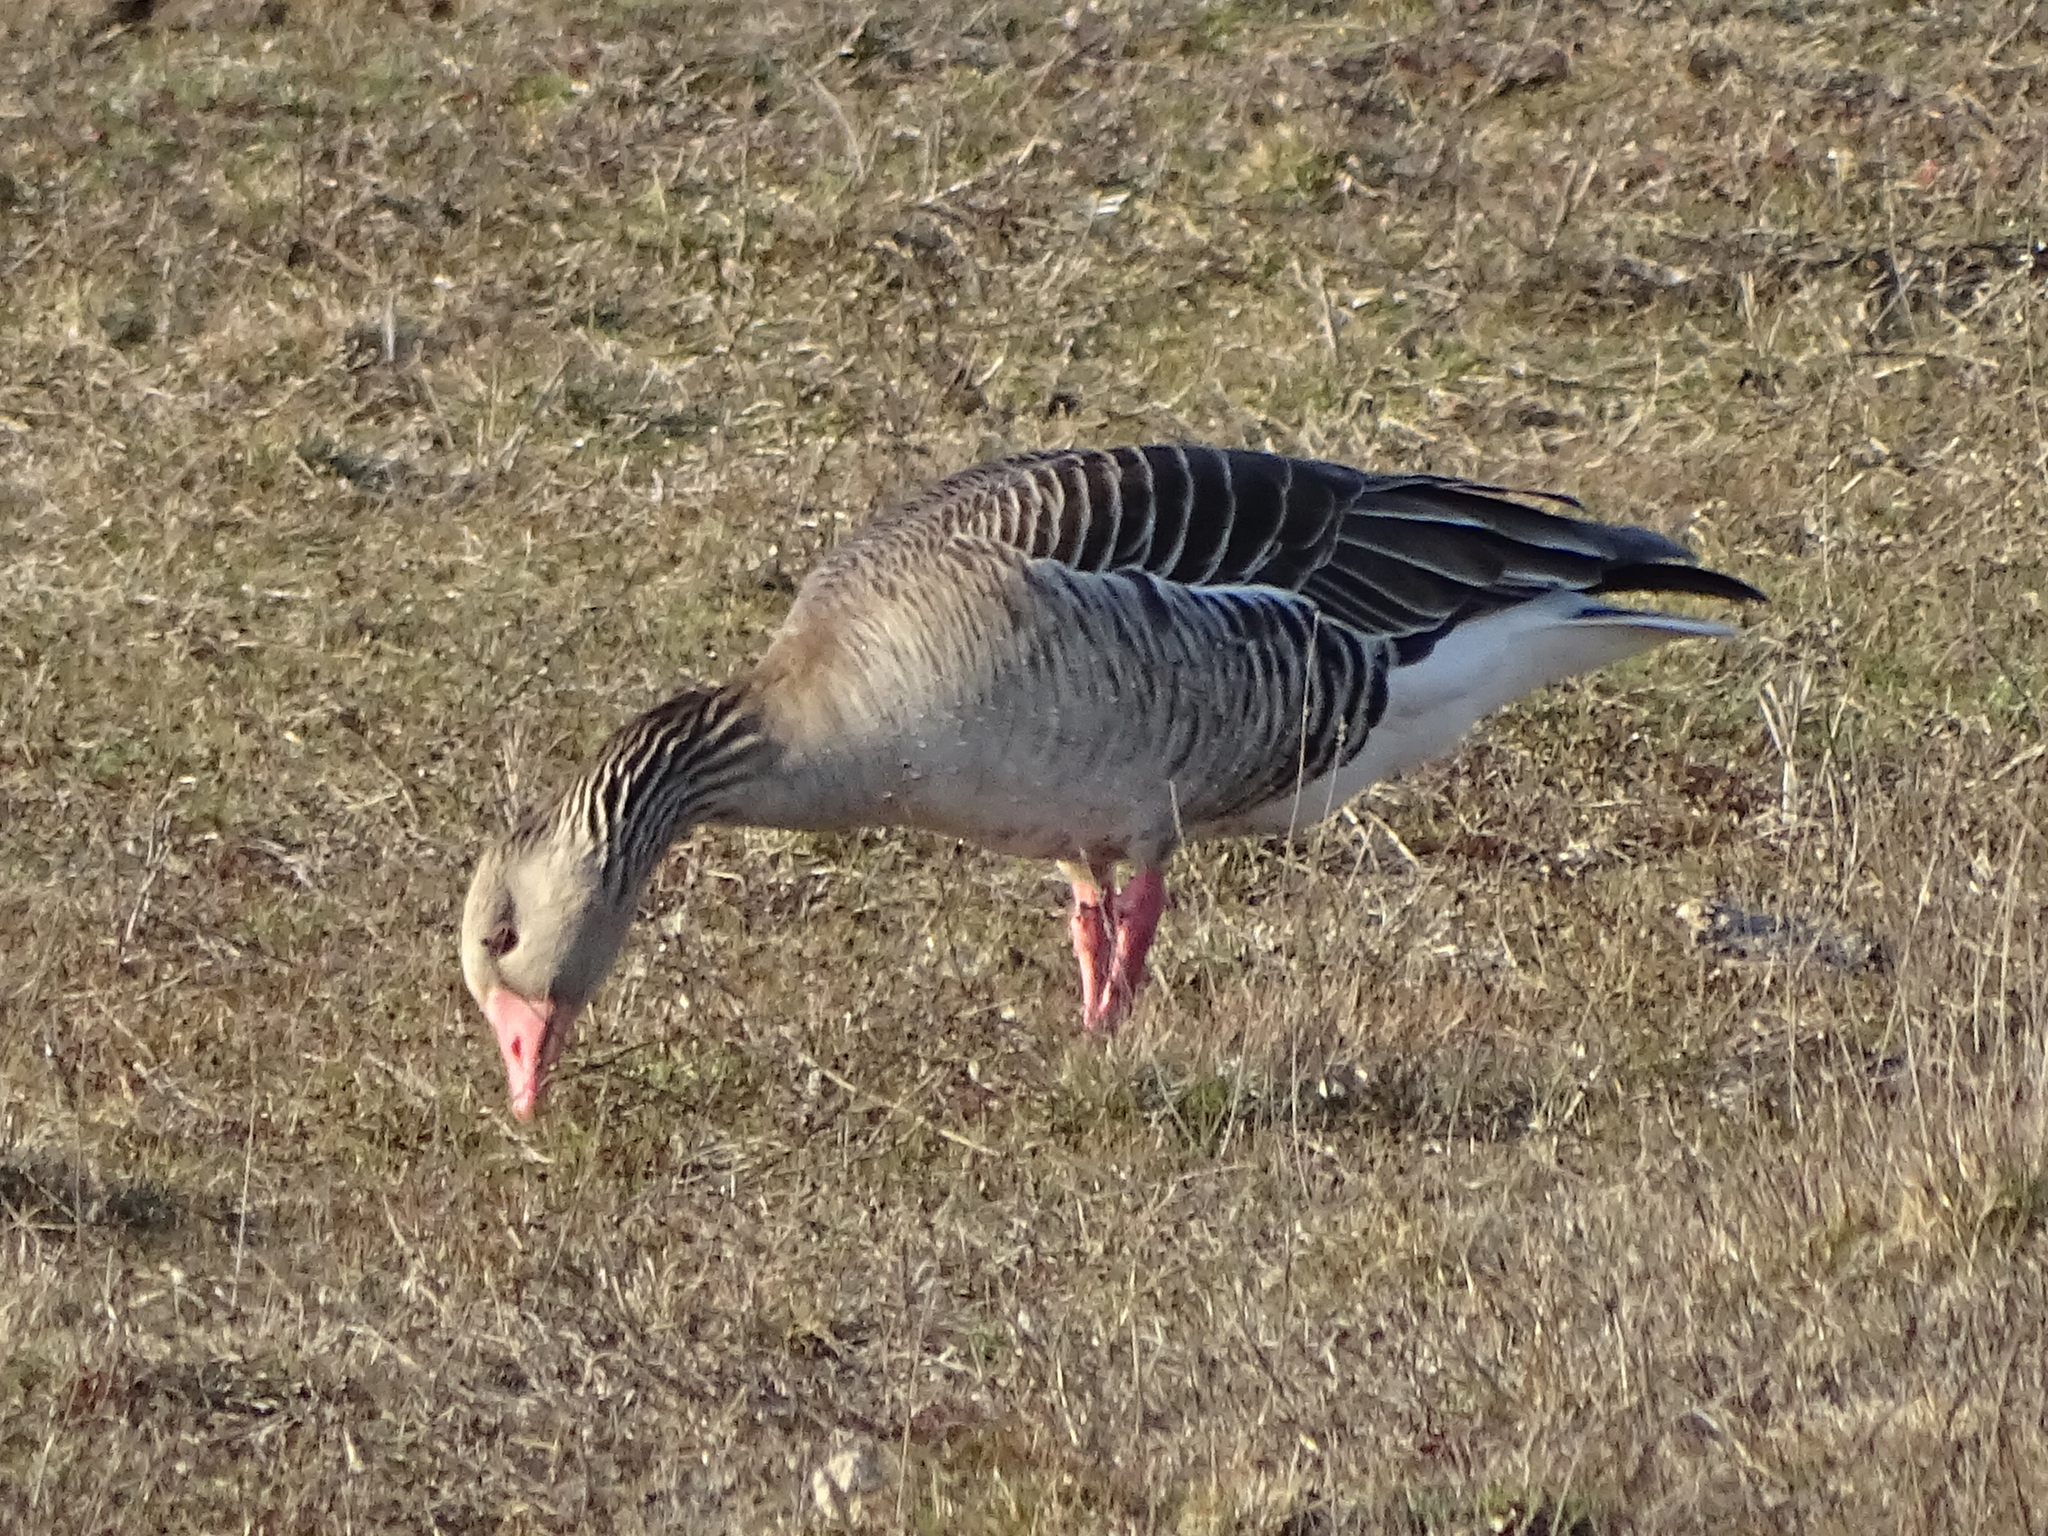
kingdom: Animalia
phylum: Chordata
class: Aves
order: Anseriformes
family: Anatidae
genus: Anser
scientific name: Anser anser
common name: Greylag goose
